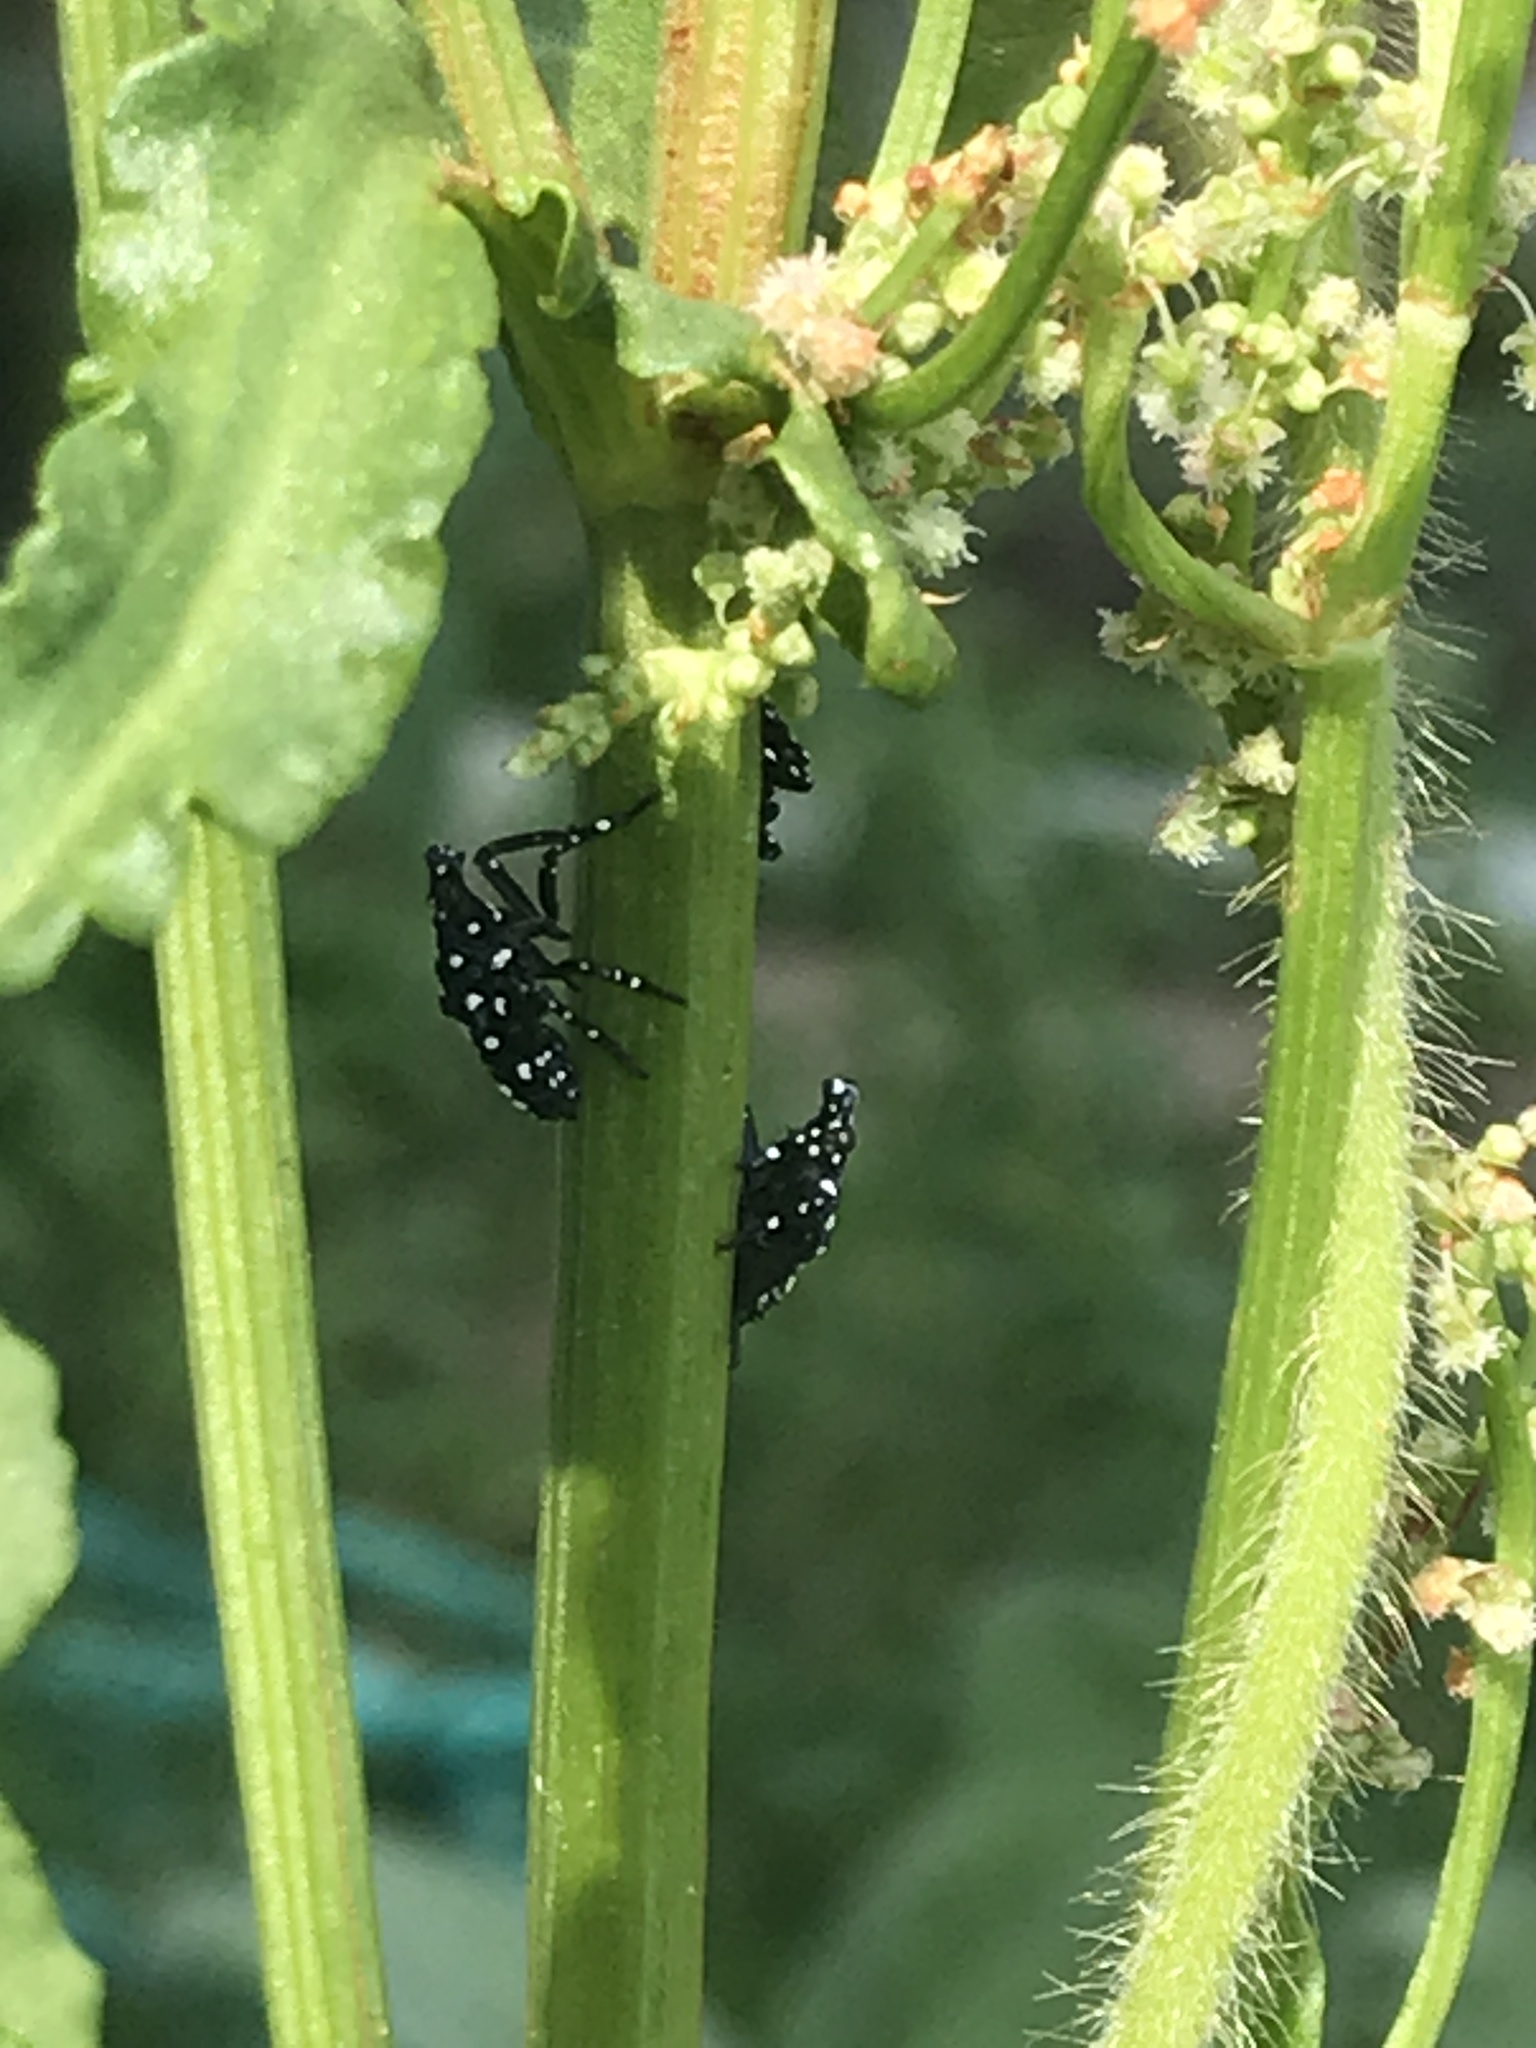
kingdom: Animalia
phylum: Arthropoda
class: Insecta
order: Hemiptera
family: Fulgoridae
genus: Lycorma
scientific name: Lycorma delicatula
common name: Spotted lanternfly
